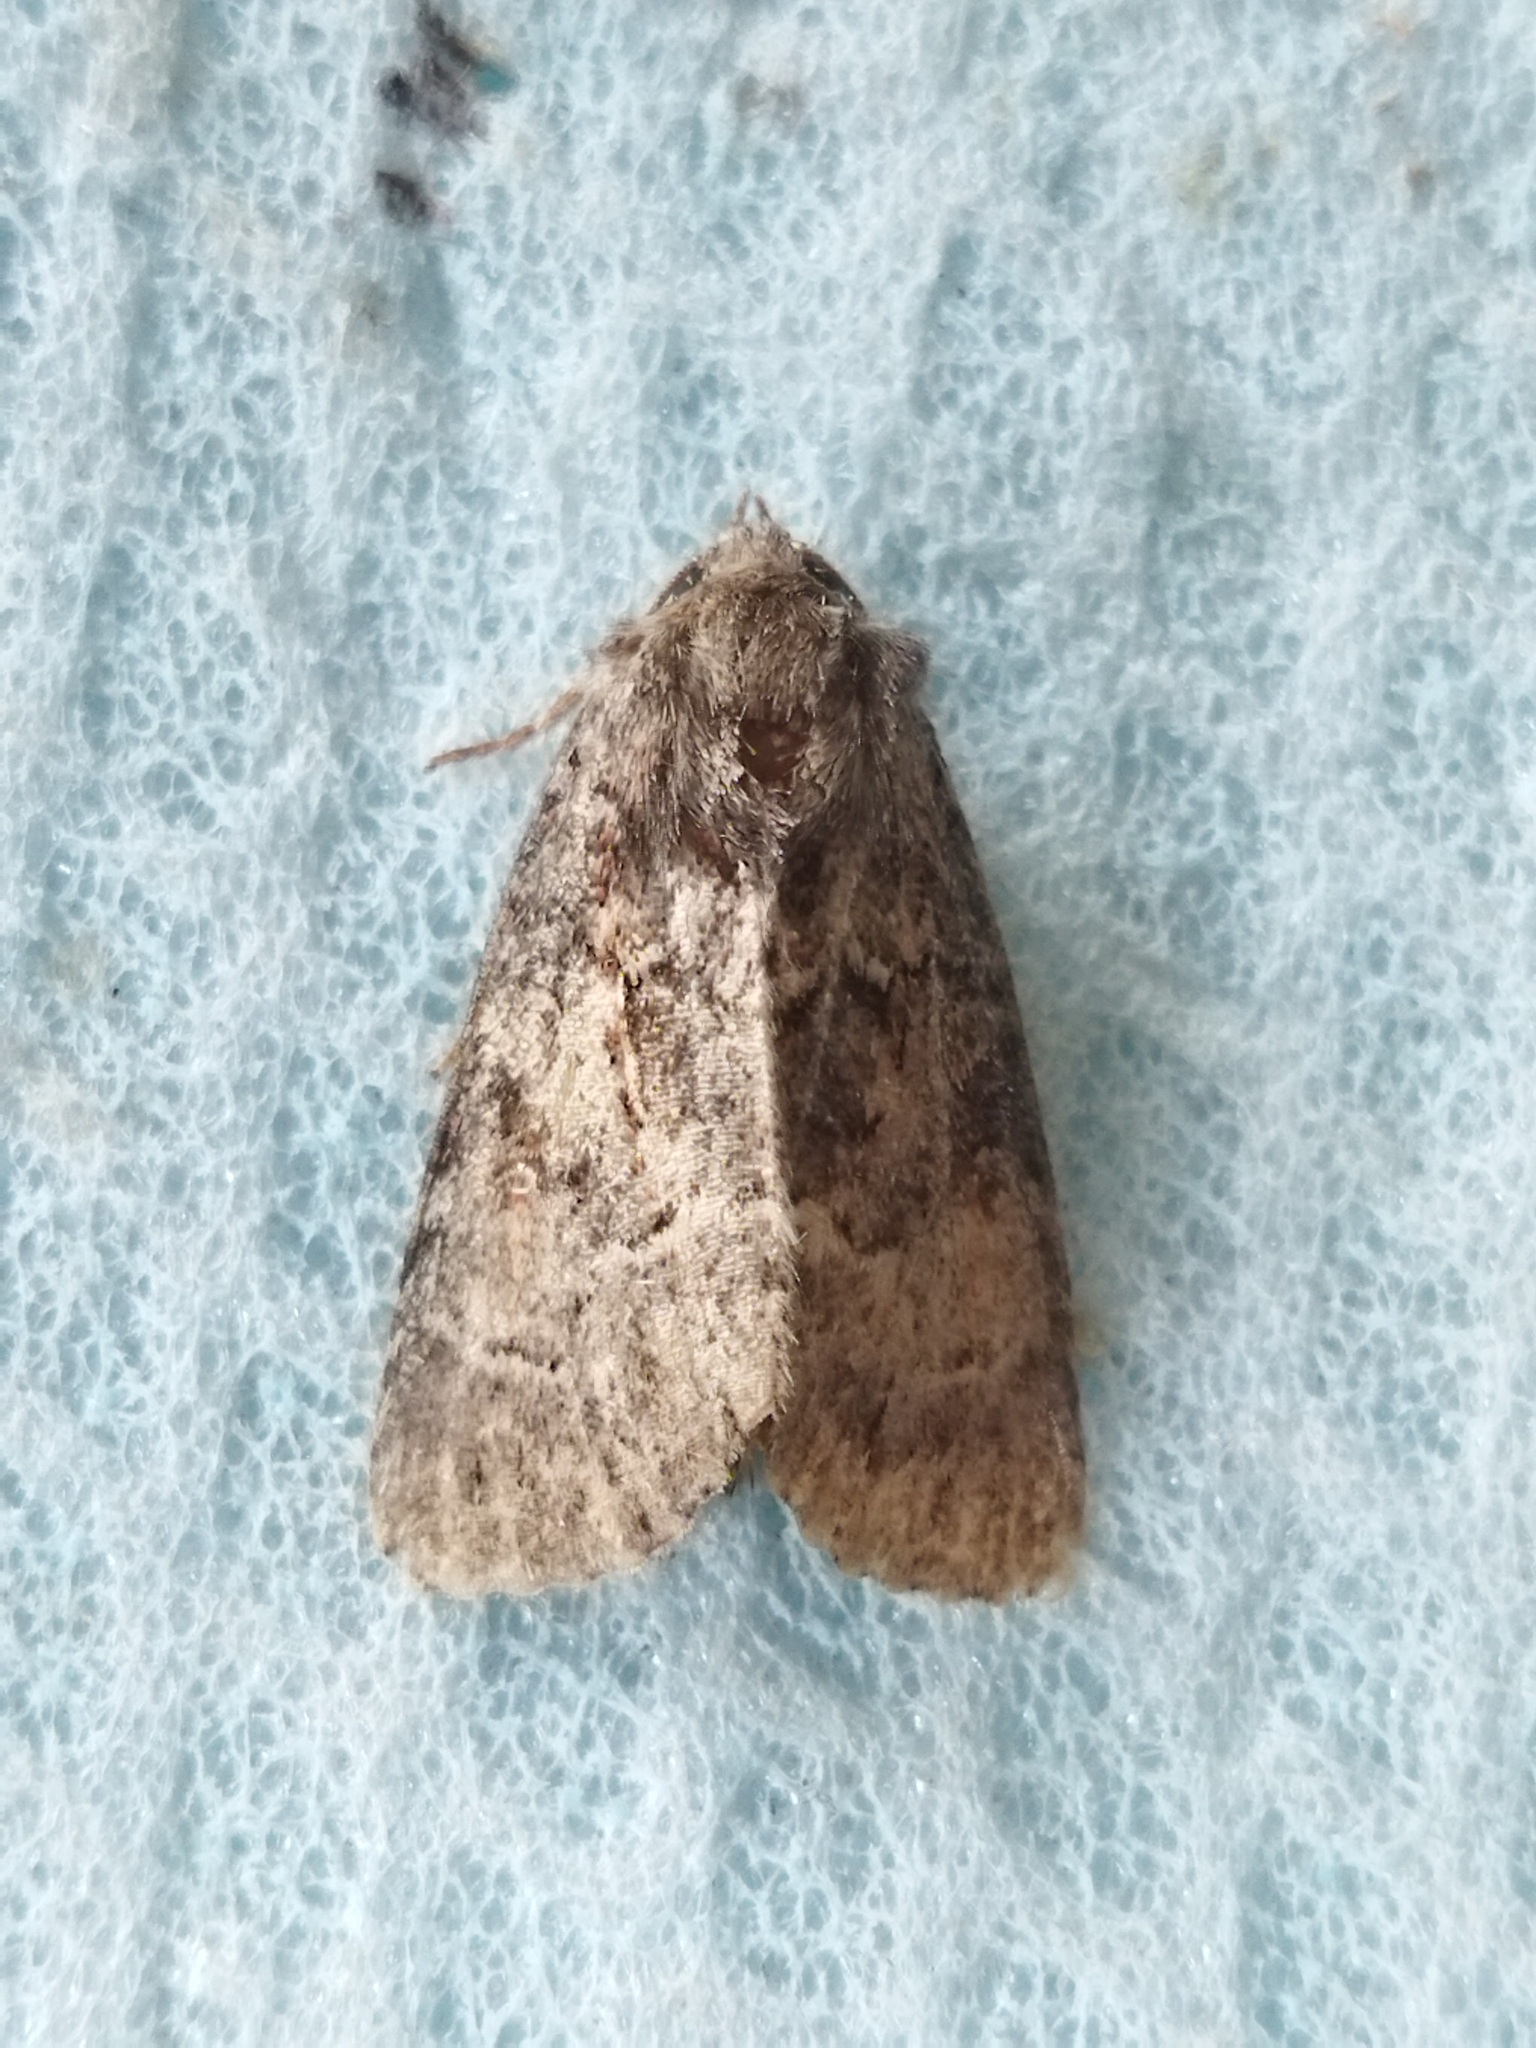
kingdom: Animalia
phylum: Arthropoda
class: Insecta
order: Lepidoptera
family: Noctuidae
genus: Thalpophila
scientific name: Thalpophila matura
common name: Straw underwing
